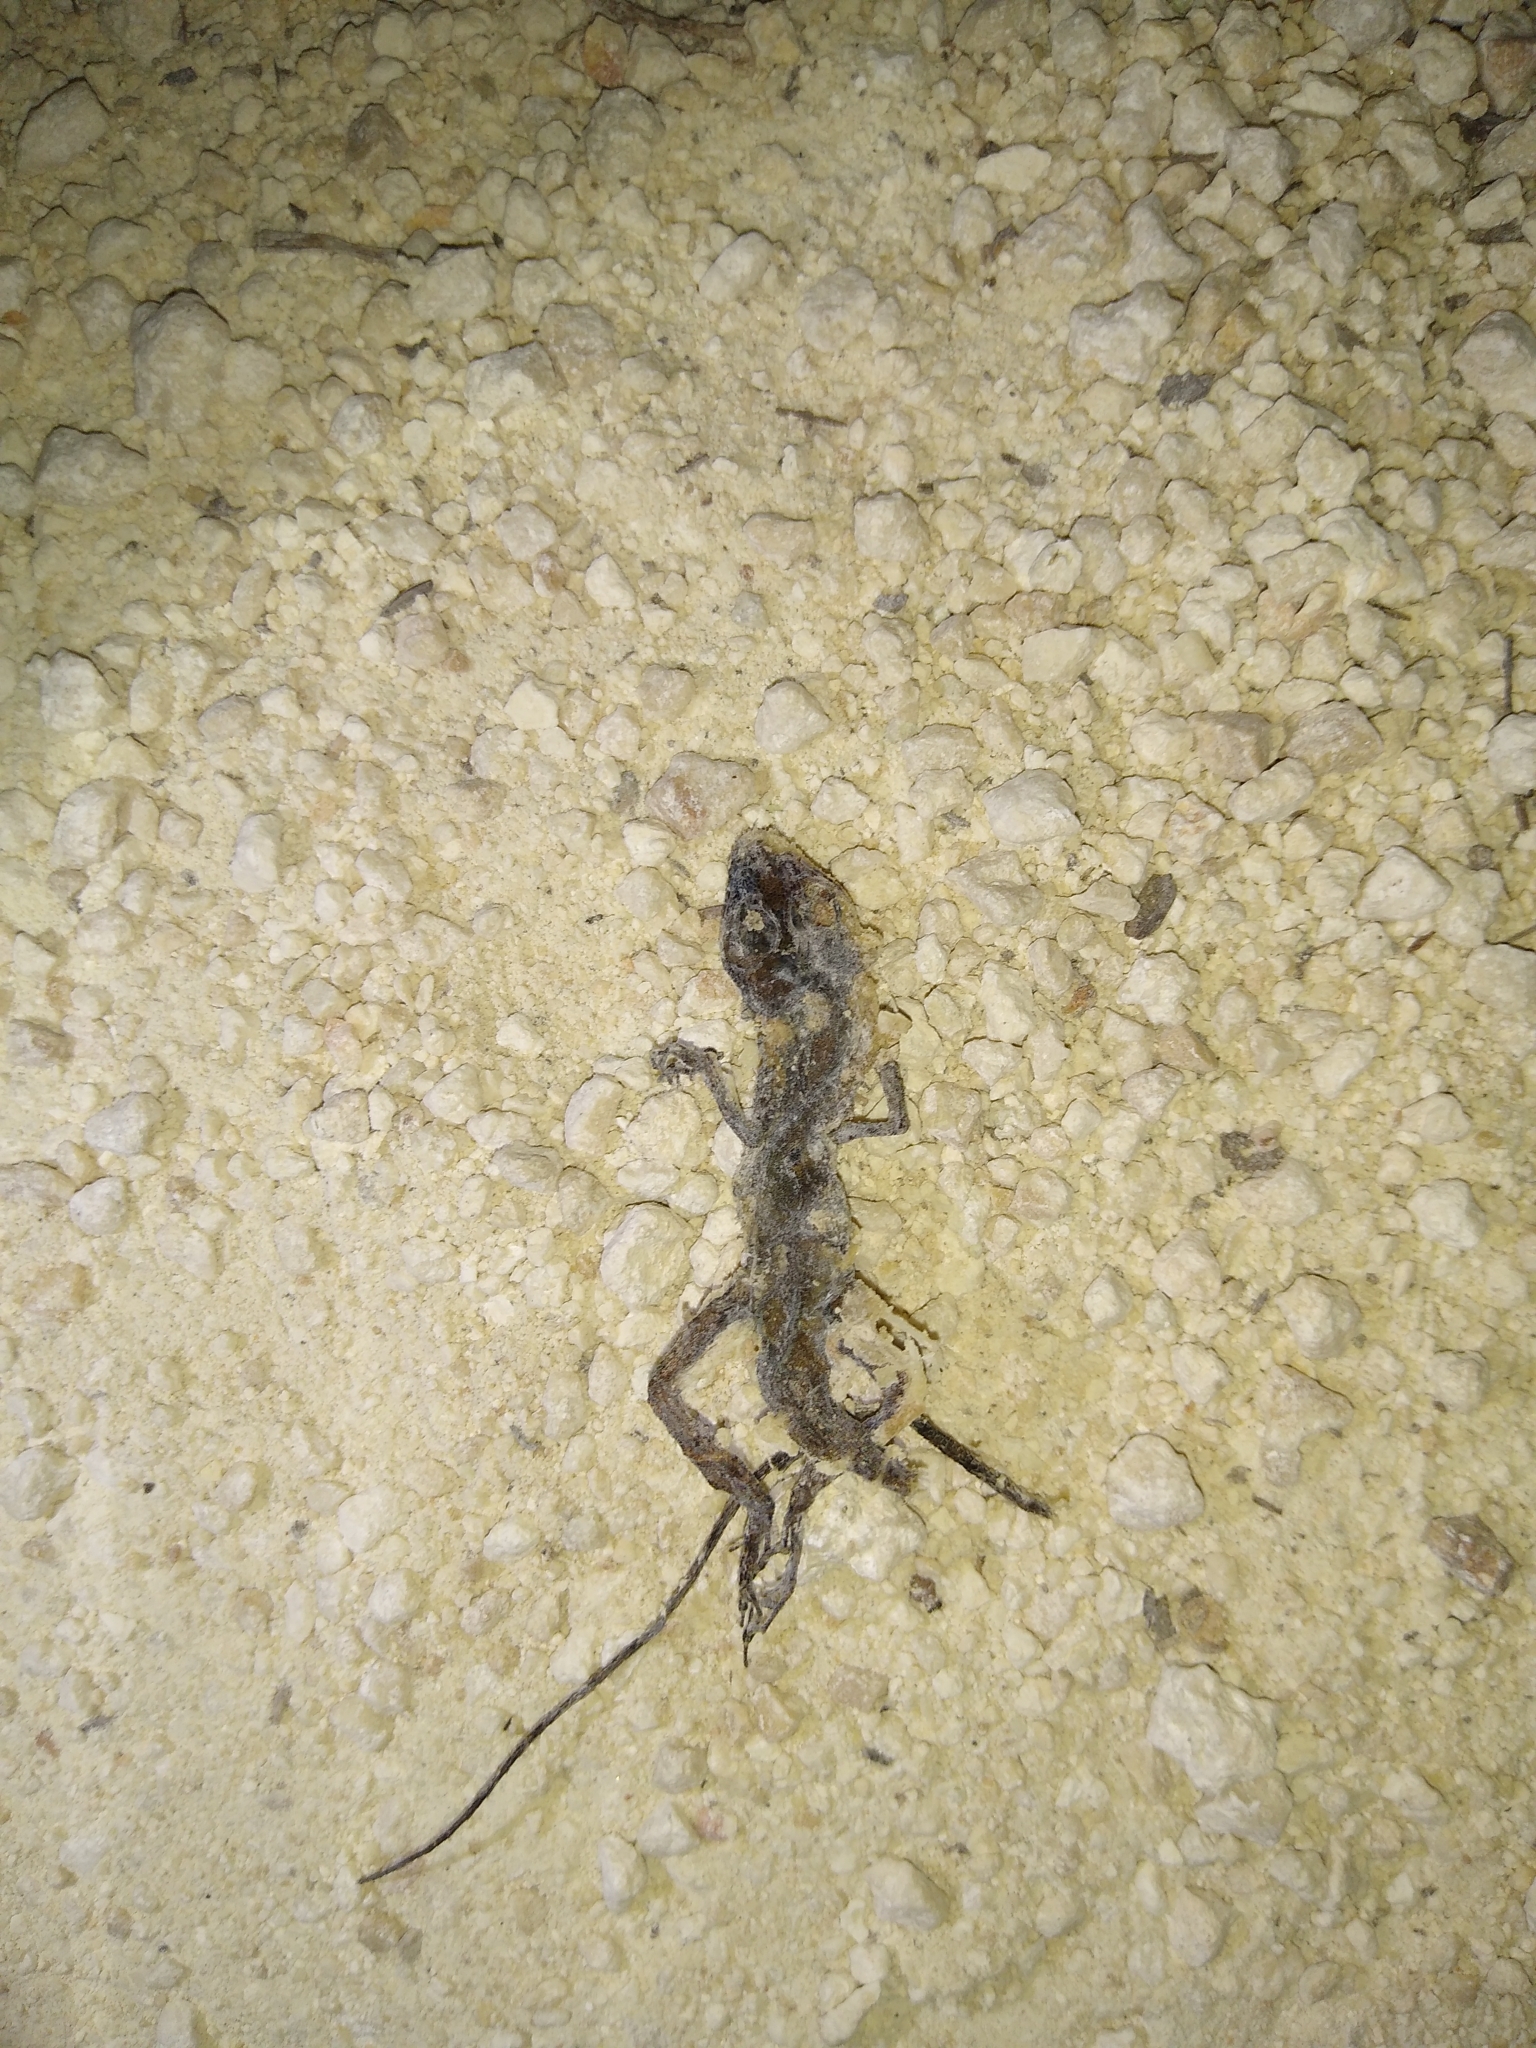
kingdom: Animalia
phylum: Chordata
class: Squamata
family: Dactyloidae
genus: Anolis
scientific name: Anolis rodriguezii
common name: Middle american smooth anole
